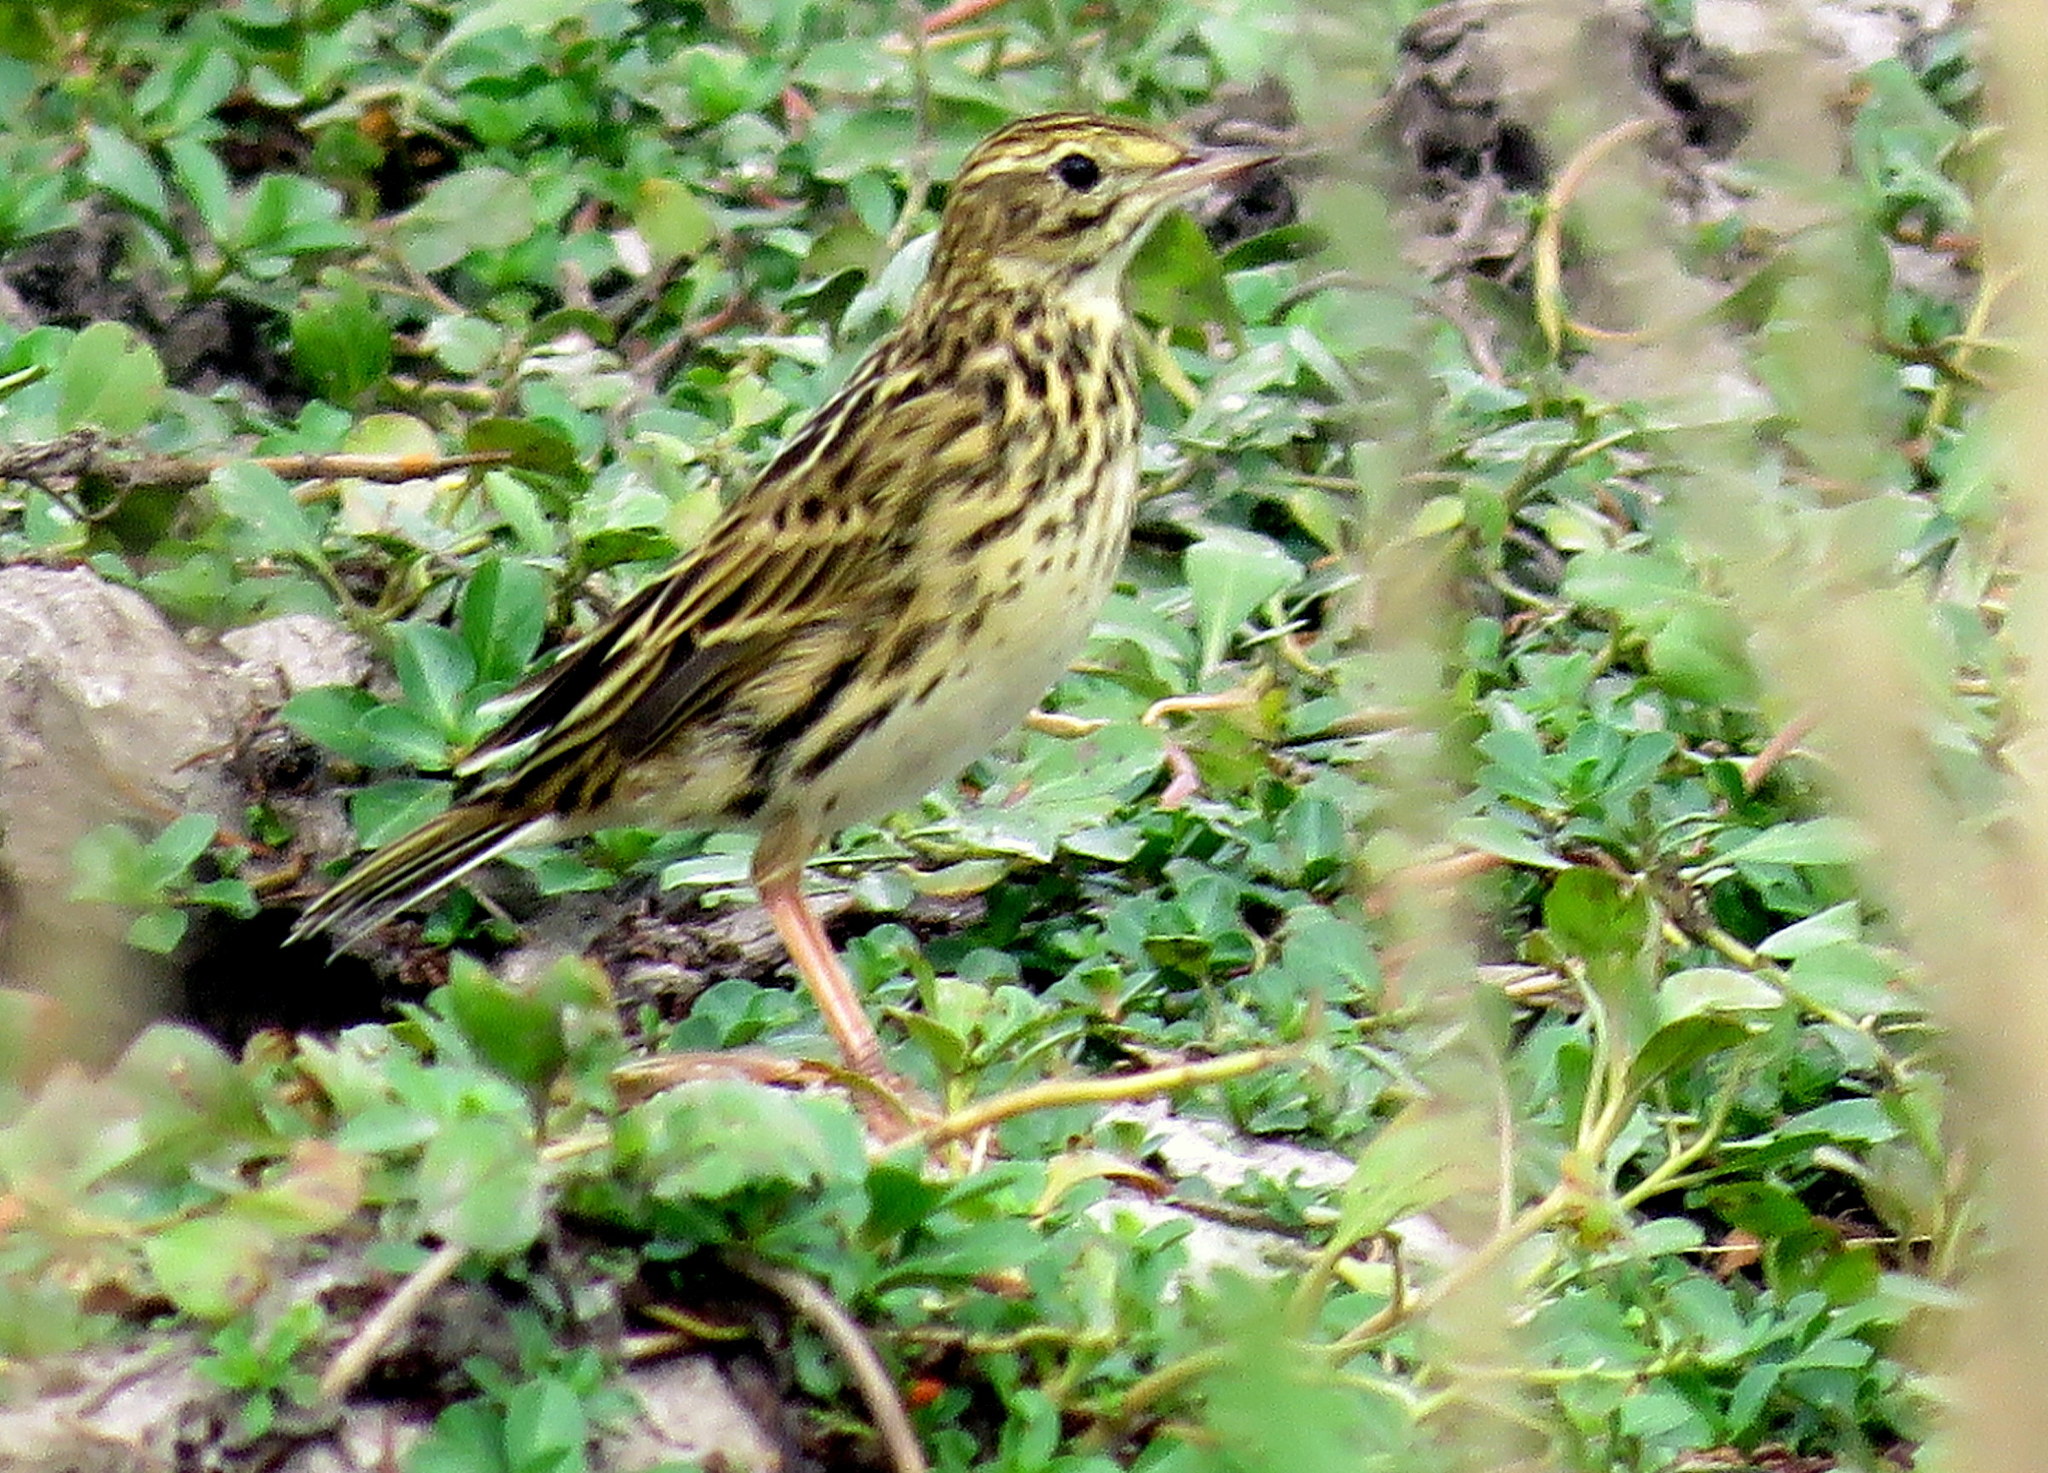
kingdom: Animalia
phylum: Chordata
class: Aves
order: Passeriformes
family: Motacillidae
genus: Anthus
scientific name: Anthus correndera
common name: Correndera pipit
